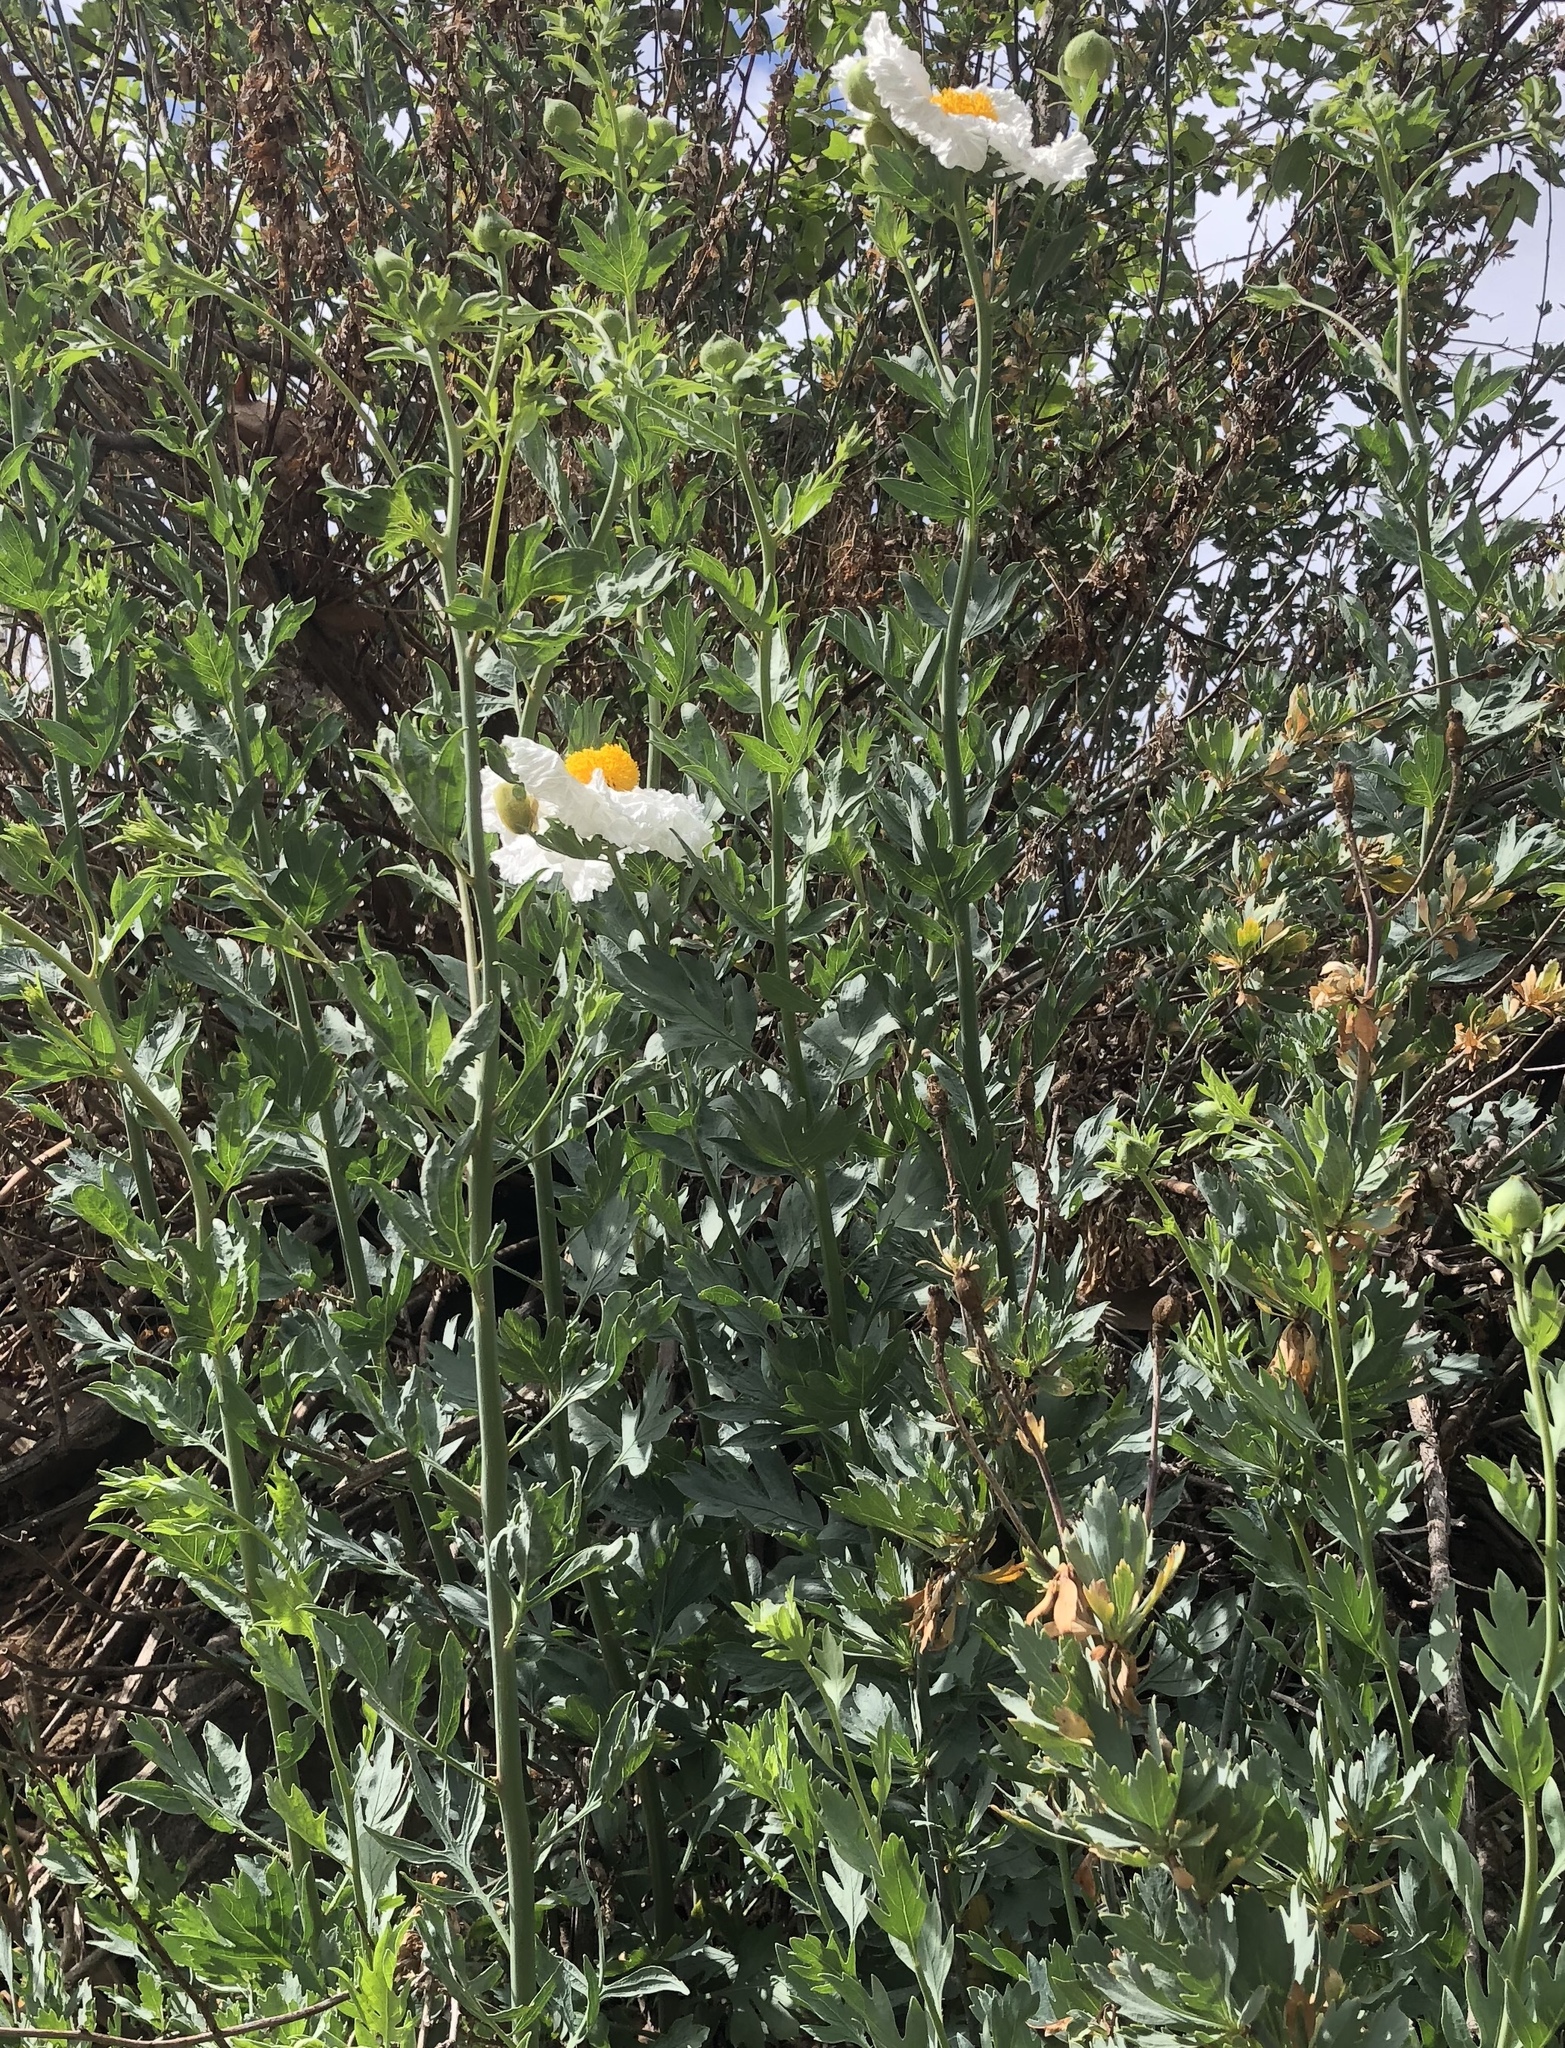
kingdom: Plantae
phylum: Tracheophyta
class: Magnoliopsida
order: Ranunculales
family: Papaveraceae
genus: Romneya
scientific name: Romneya trichocalyx
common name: Hairy matilija-poppy
